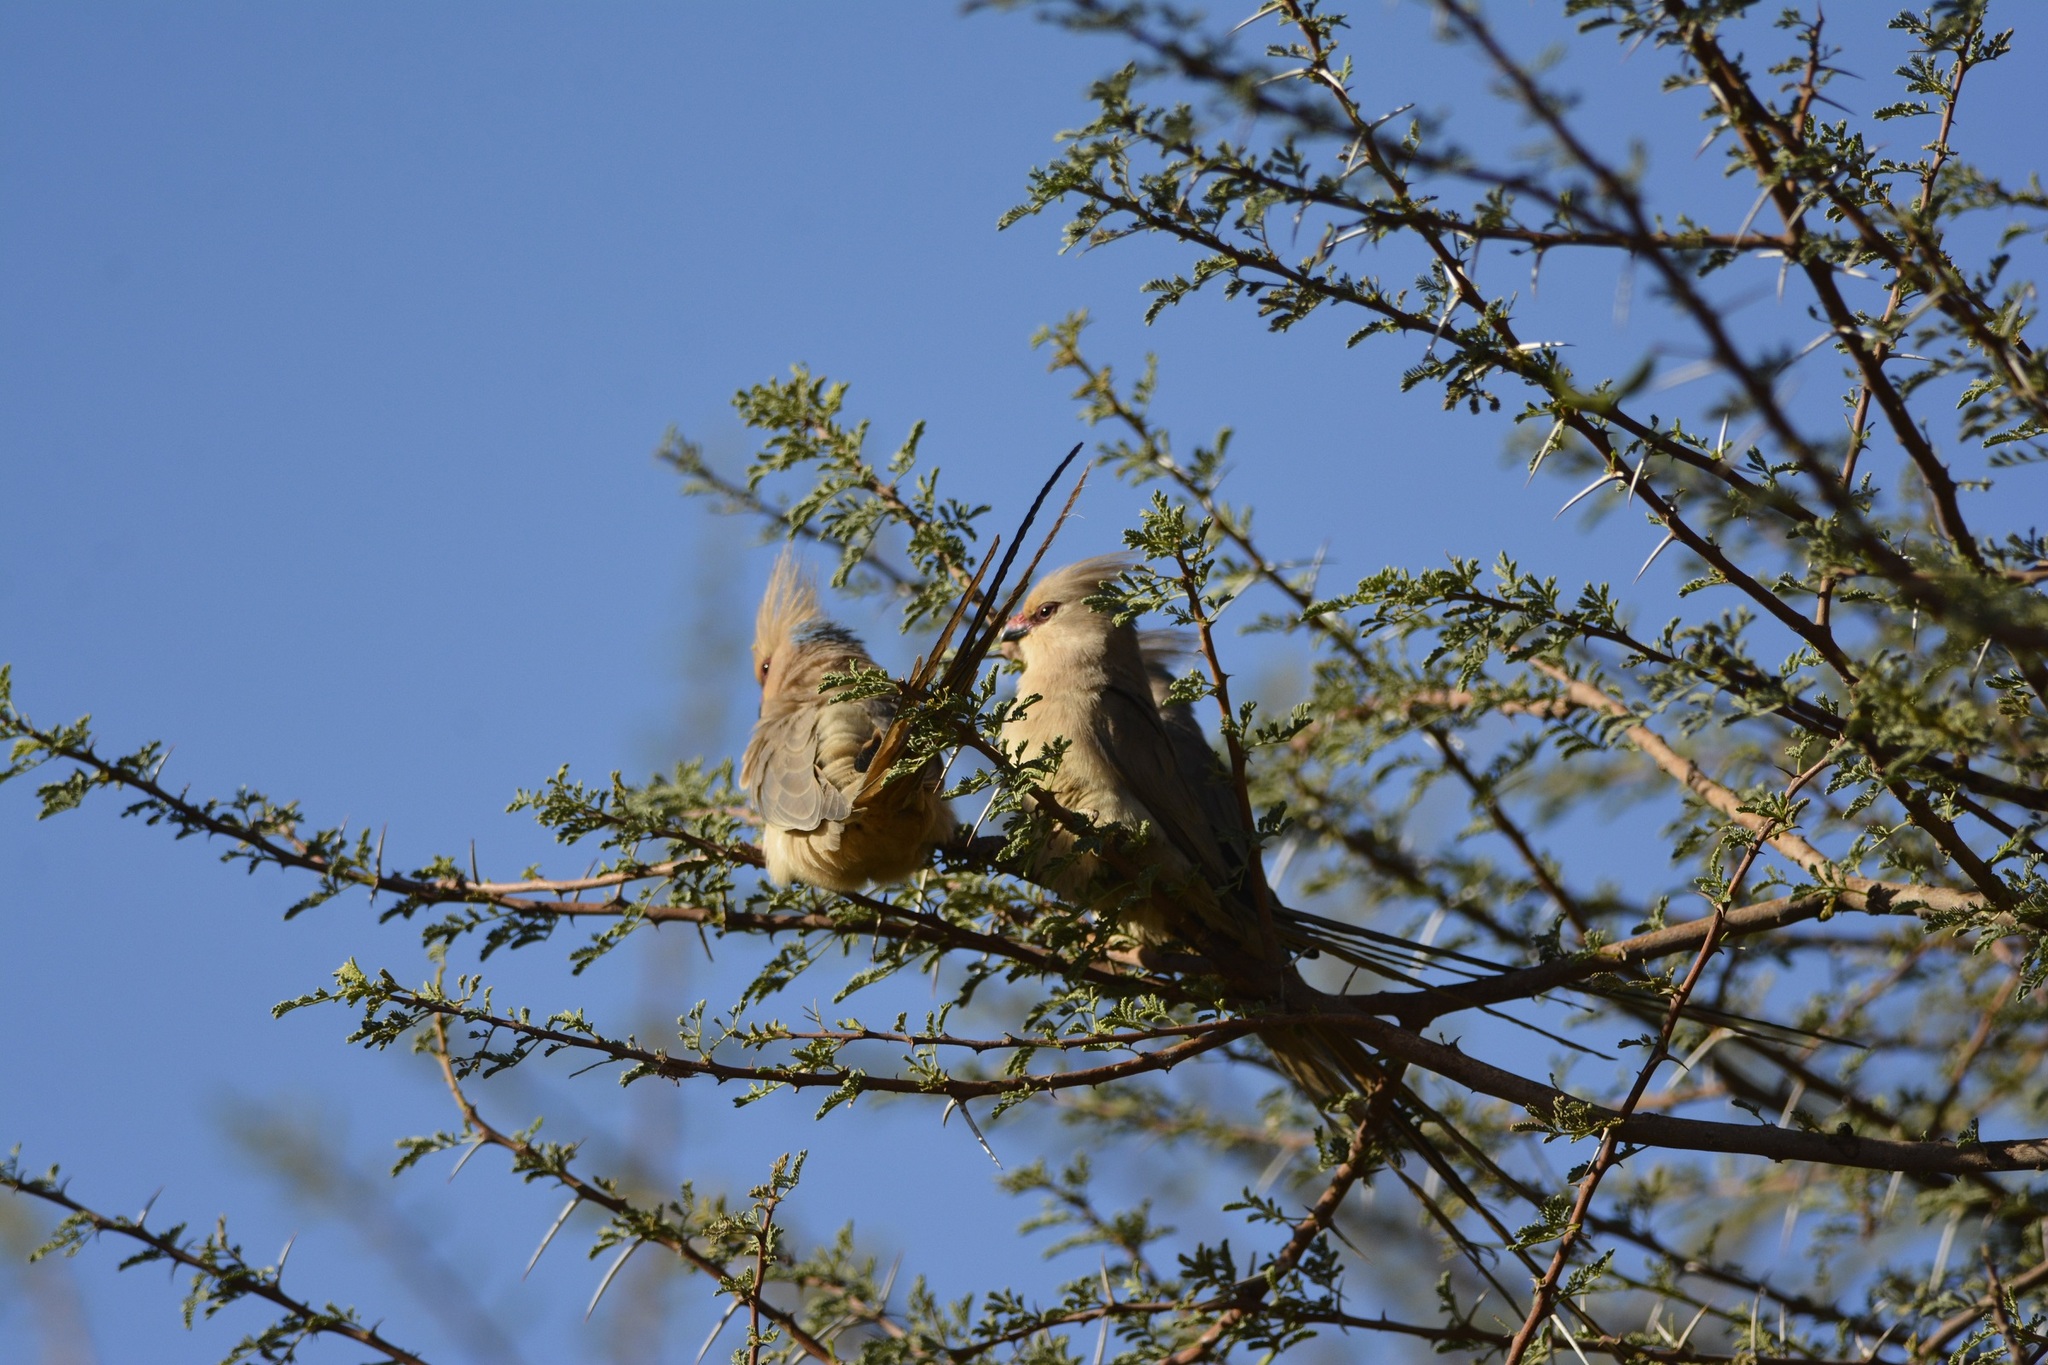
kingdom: Animalia
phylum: Chordata
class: Aves
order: Coliiformes
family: Coliidae
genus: Urocolius
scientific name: Urocolius macrourus
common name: Blue-naped mousebird
